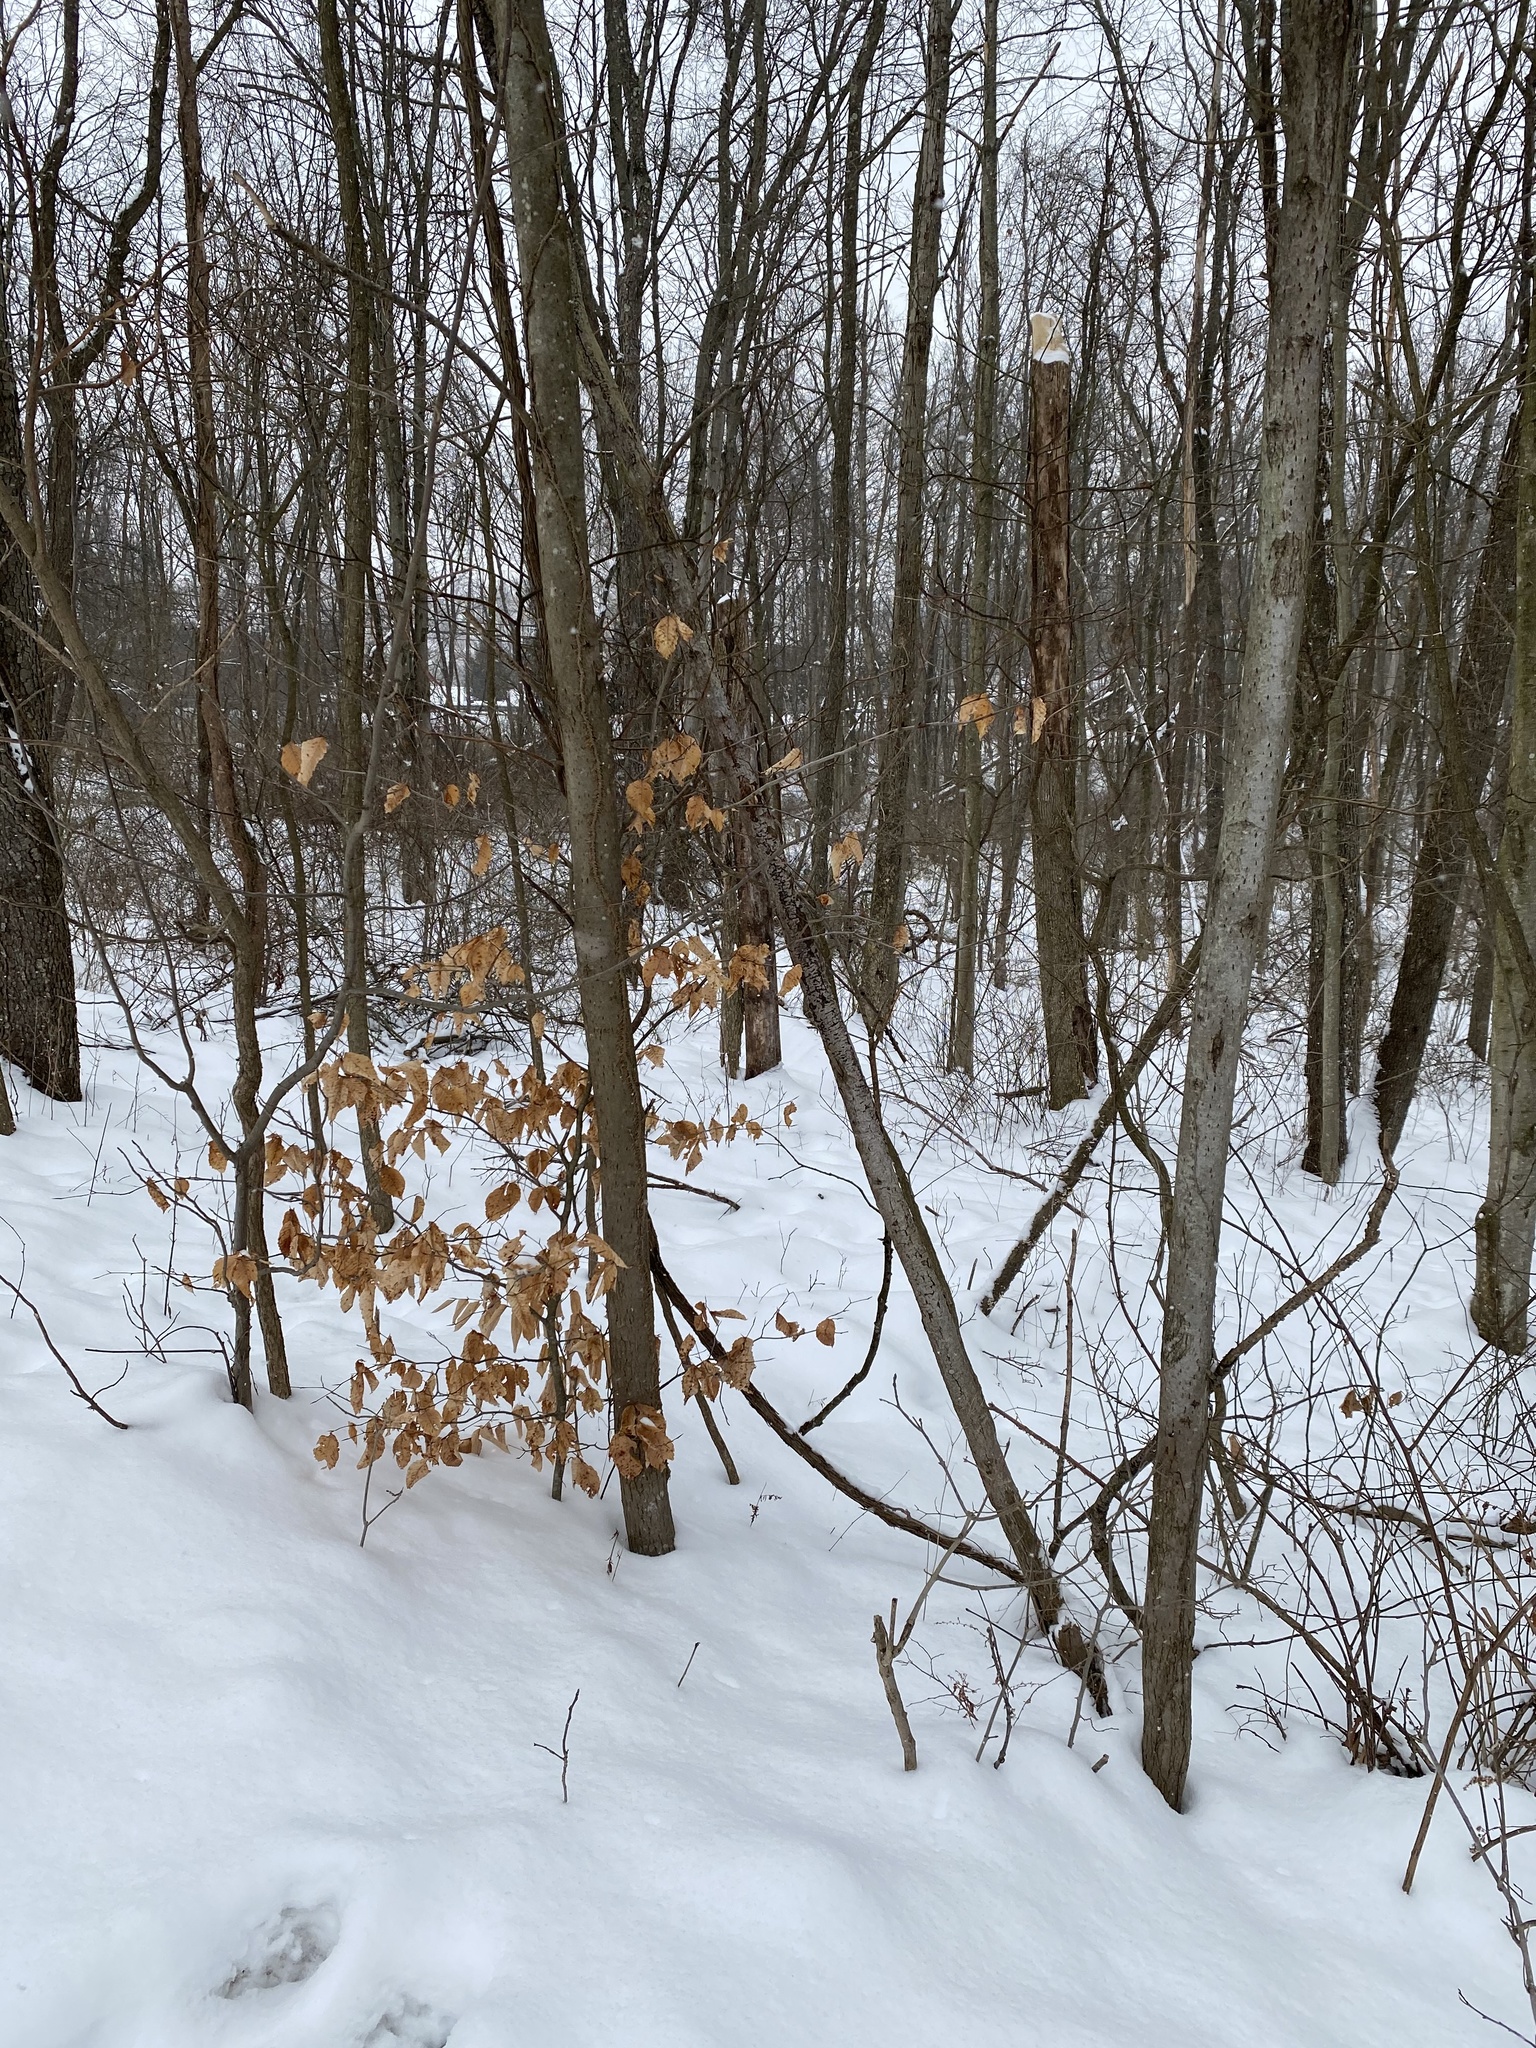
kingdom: Plantae
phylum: Tracheophyta
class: Magnoliopsida
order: Fagales
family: Fagaceae
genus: Fagus
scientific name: Fagus grandifolia
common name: American beech
